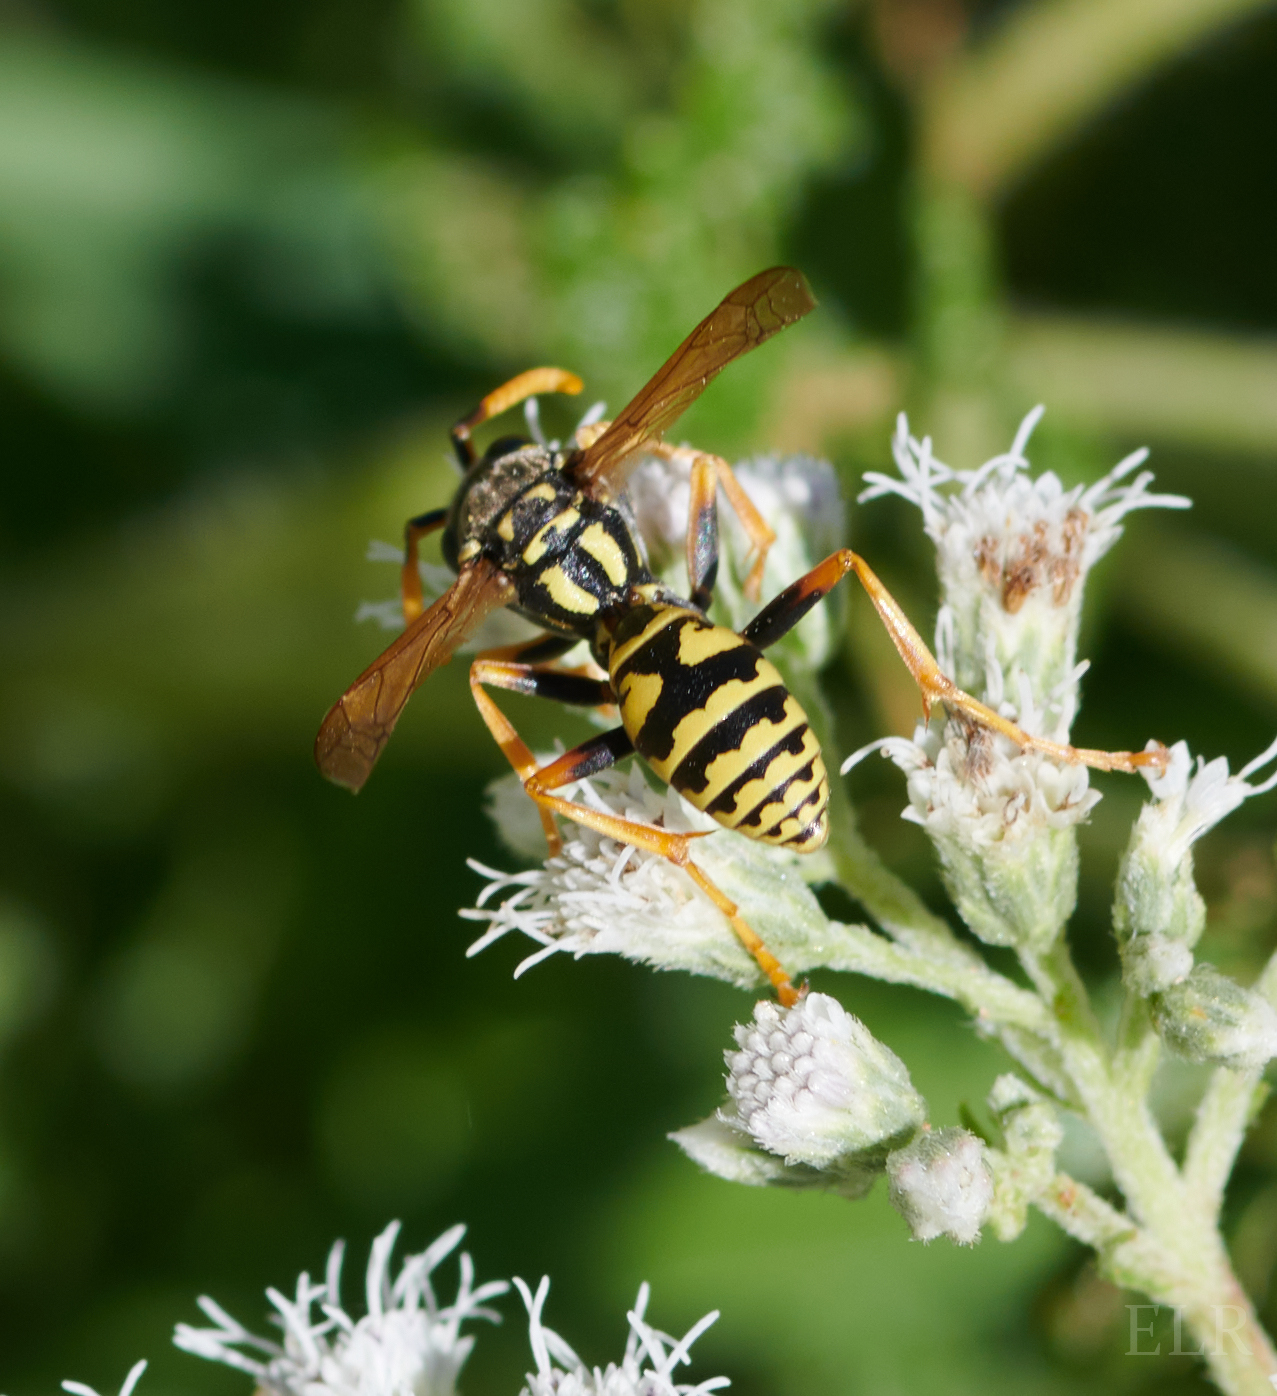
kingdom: Animalia
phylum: Arthropoda
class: Insecta
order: Hymenoptera
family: Eumenidae
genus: Polistes
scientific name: Polistes dominula
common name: Paper wasp
